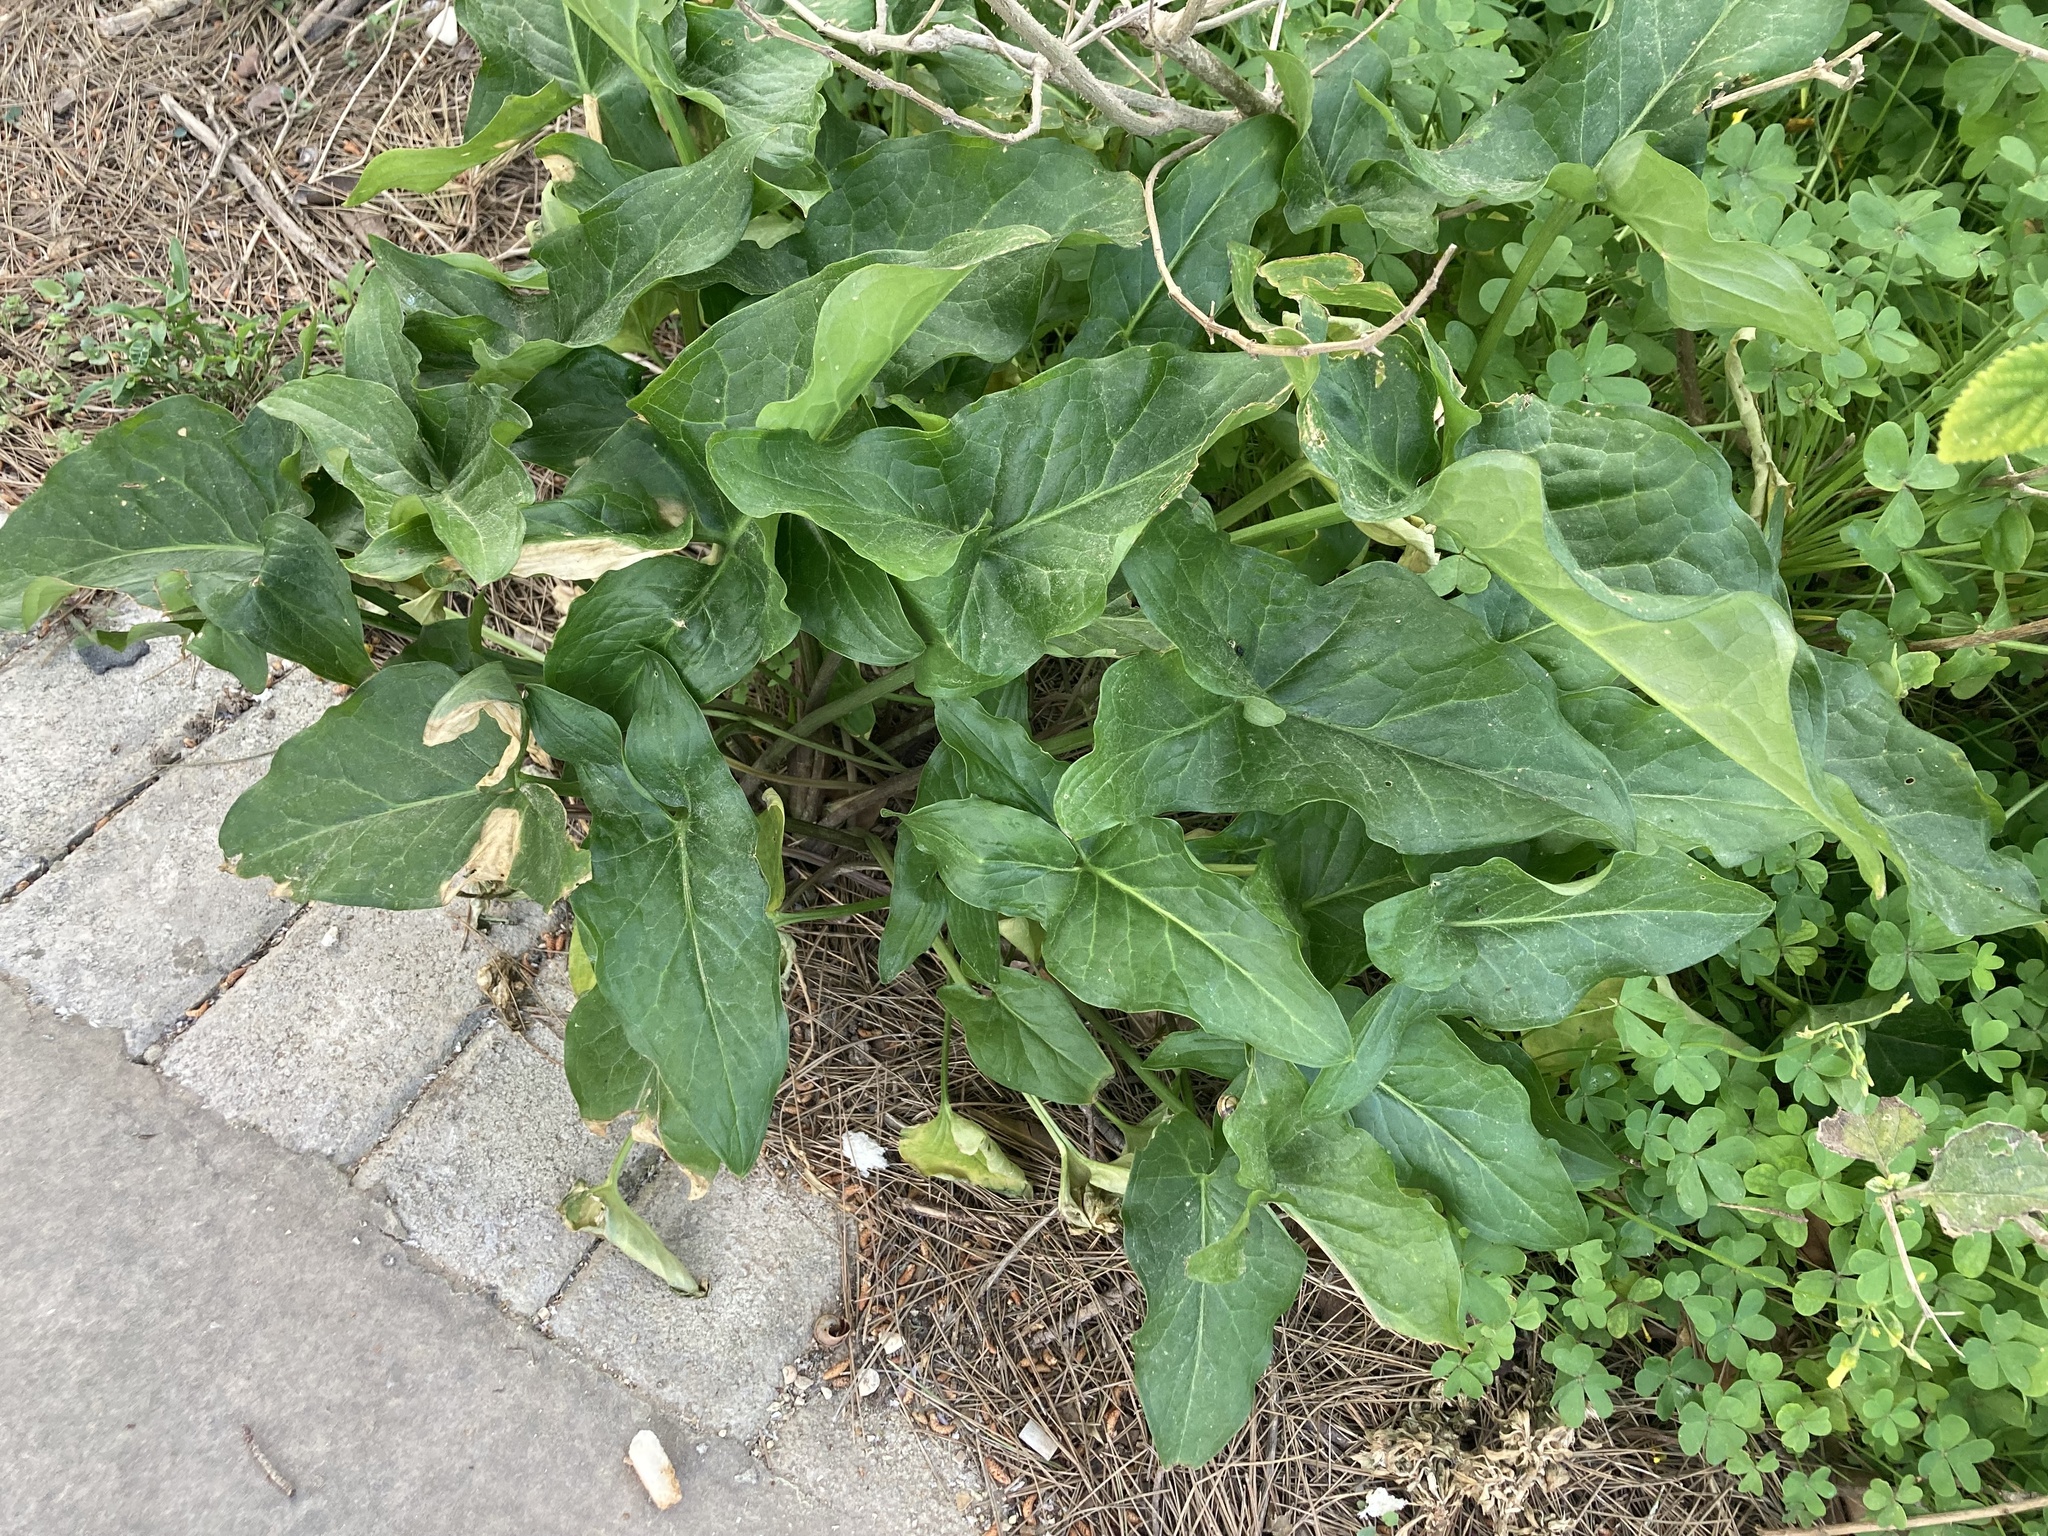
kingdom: Plantae
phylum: Tracheophyta
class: Liliopsida
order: Alismatales
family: Araceae
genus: Arum
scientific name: Arum italicum
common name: Italian lords-and-ladies
